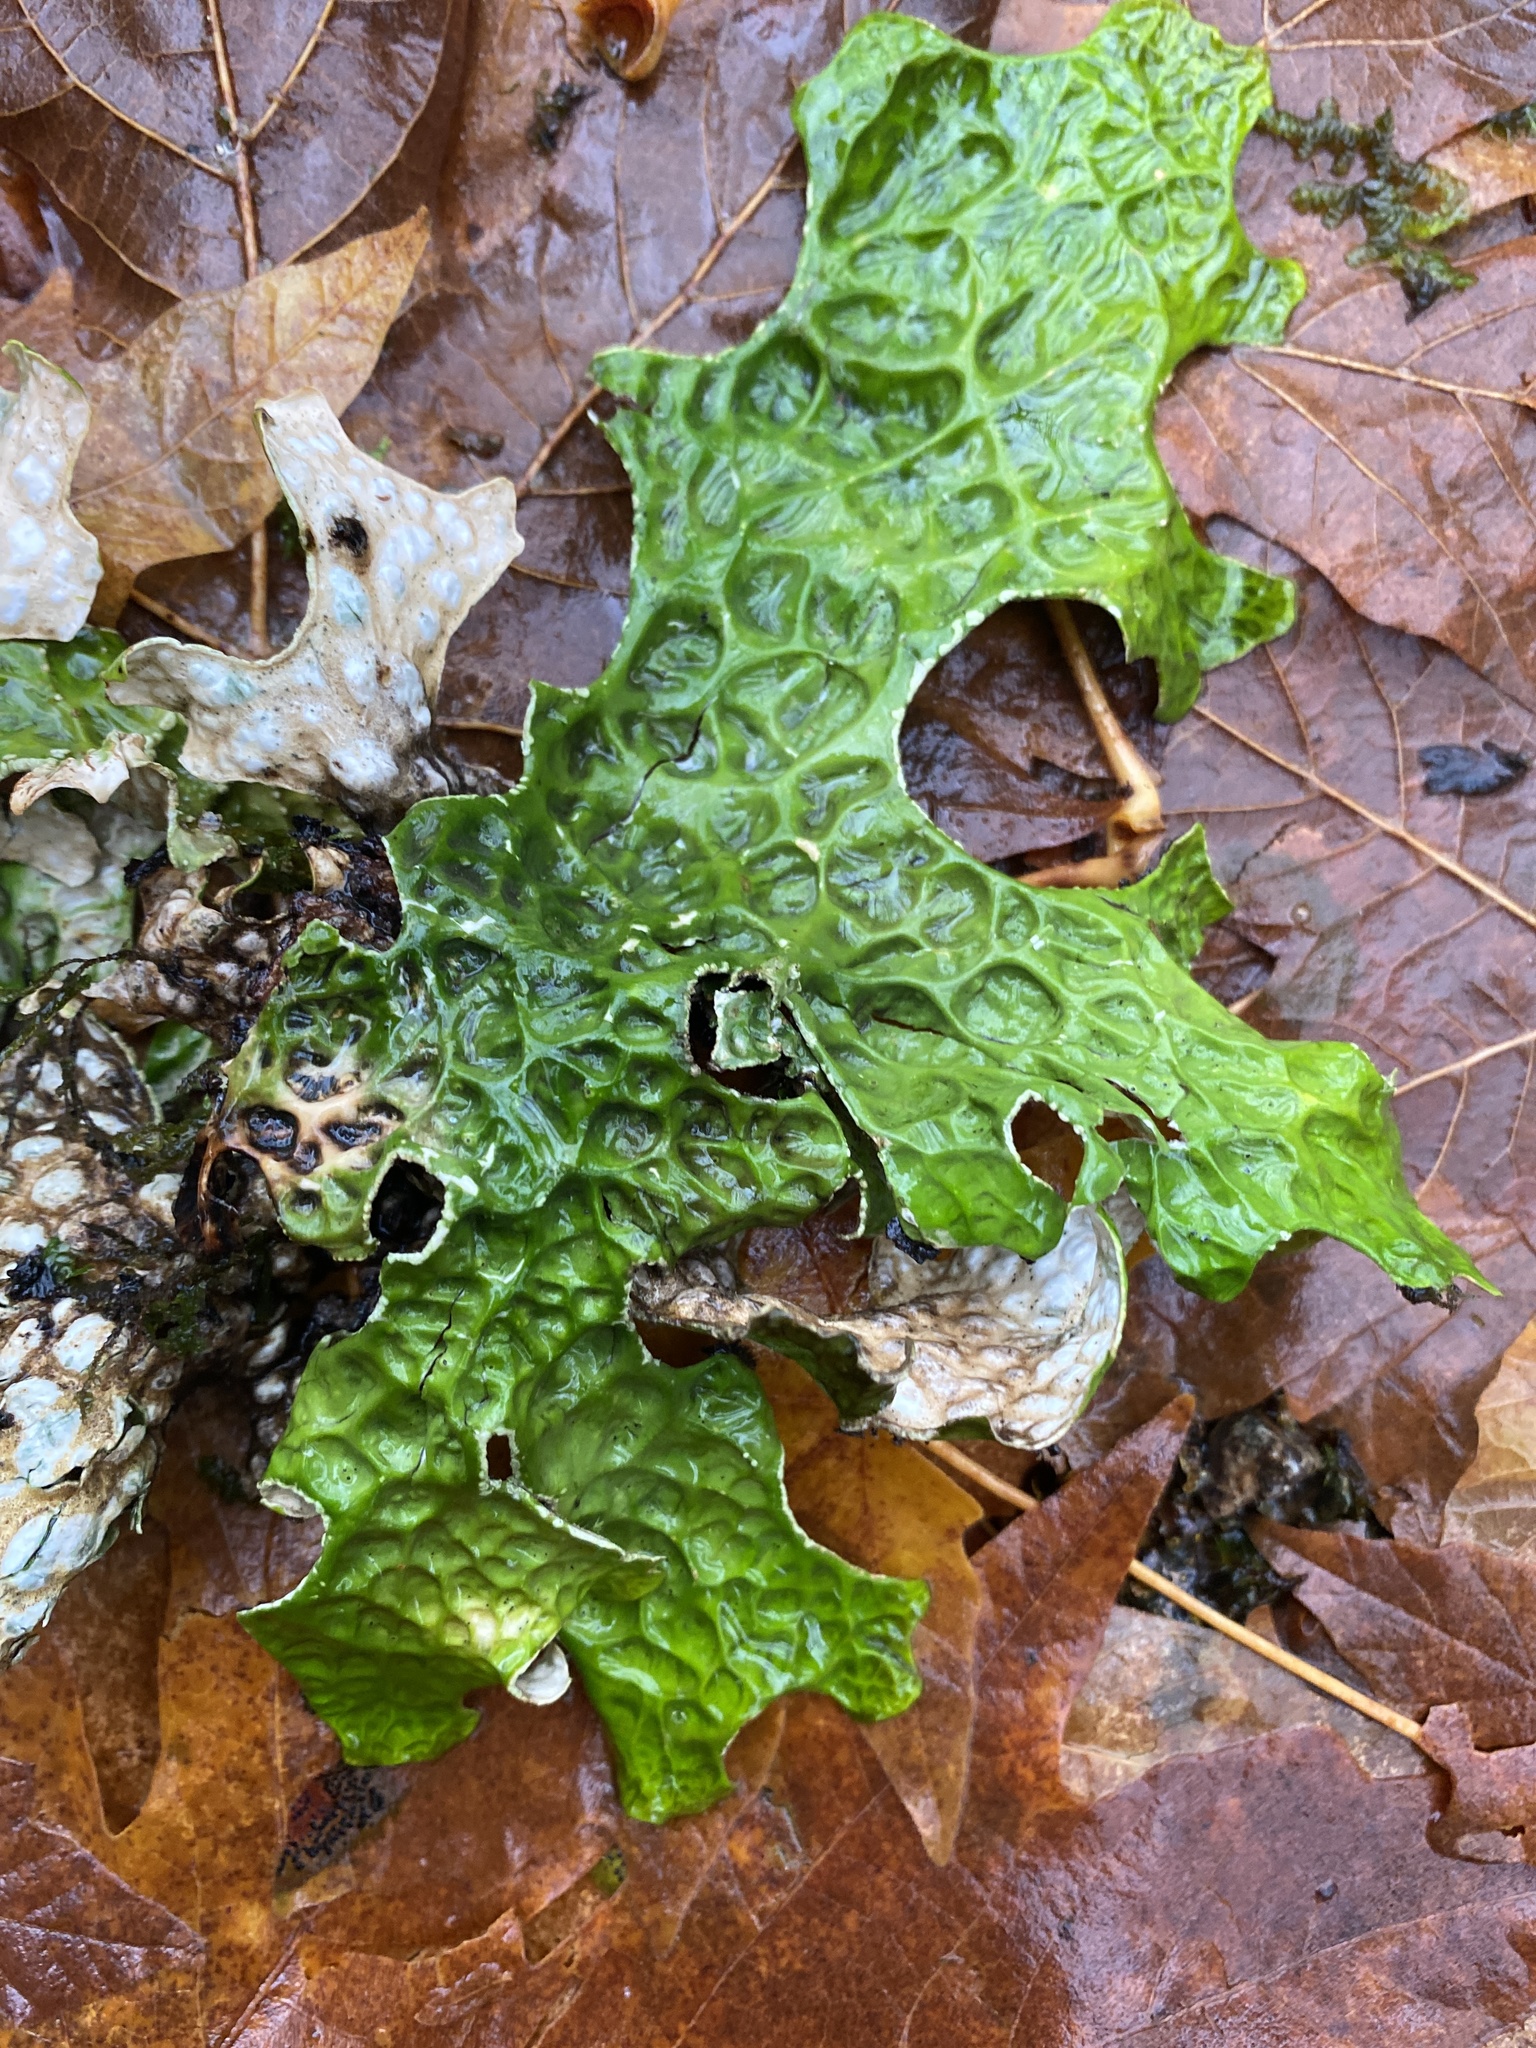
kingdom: Fungi
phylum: Ascomycota
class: Lecanoromycetes
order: Peltigerales
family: Lobariaceae
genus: Lobaria
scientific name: Lobaria pulmonaria
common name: Lungwort
